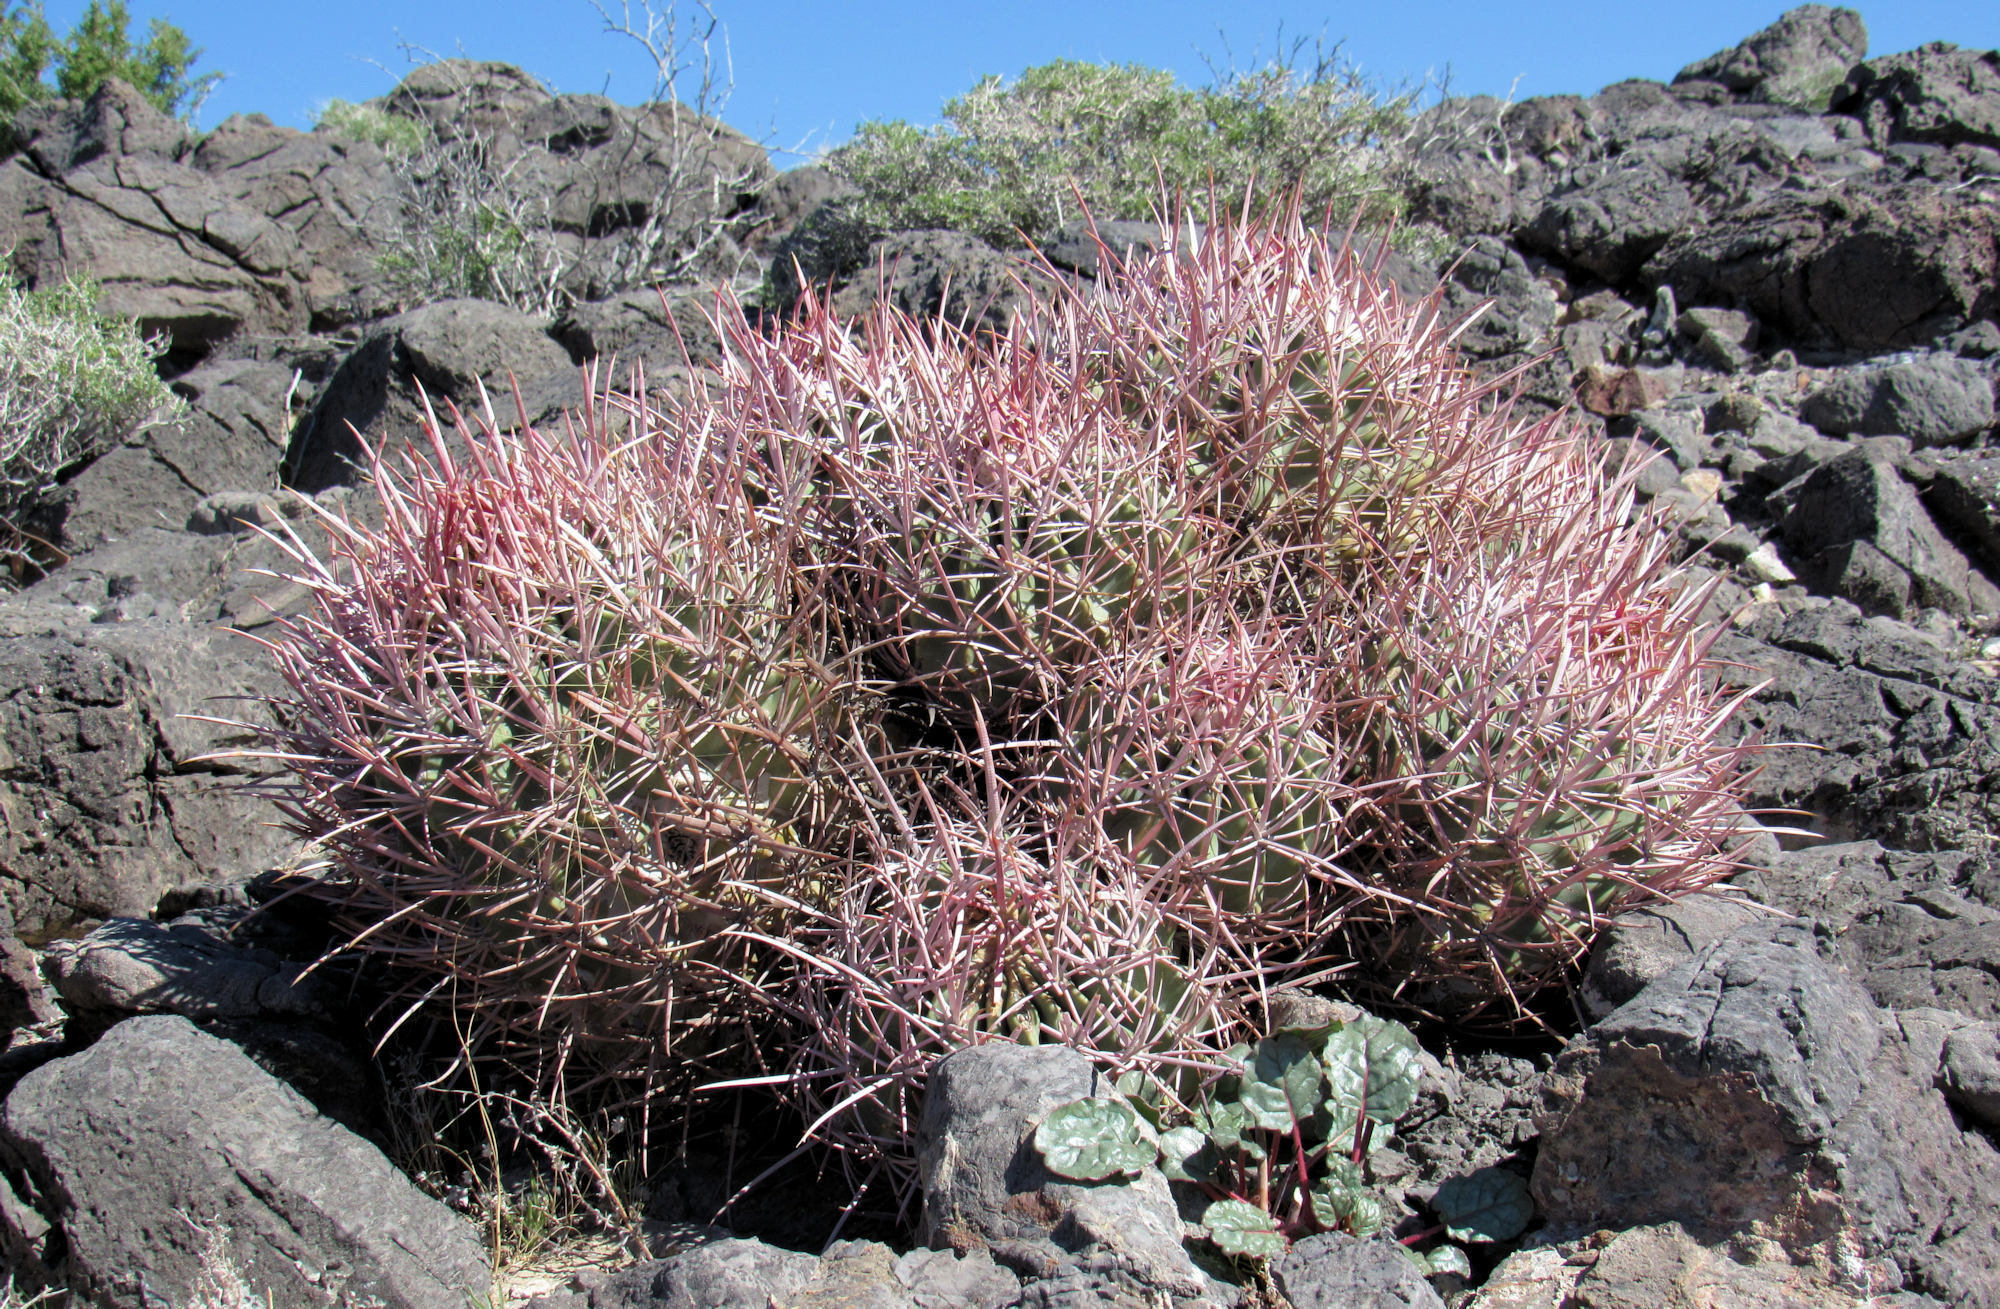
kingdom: Plantae
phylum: Tracheophyta
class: Magnoliopsida
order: Caryophyllales
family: Cactaceae
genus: Echinocactus
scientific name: Echinocactus polycephalus
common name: Cottontop cactus
